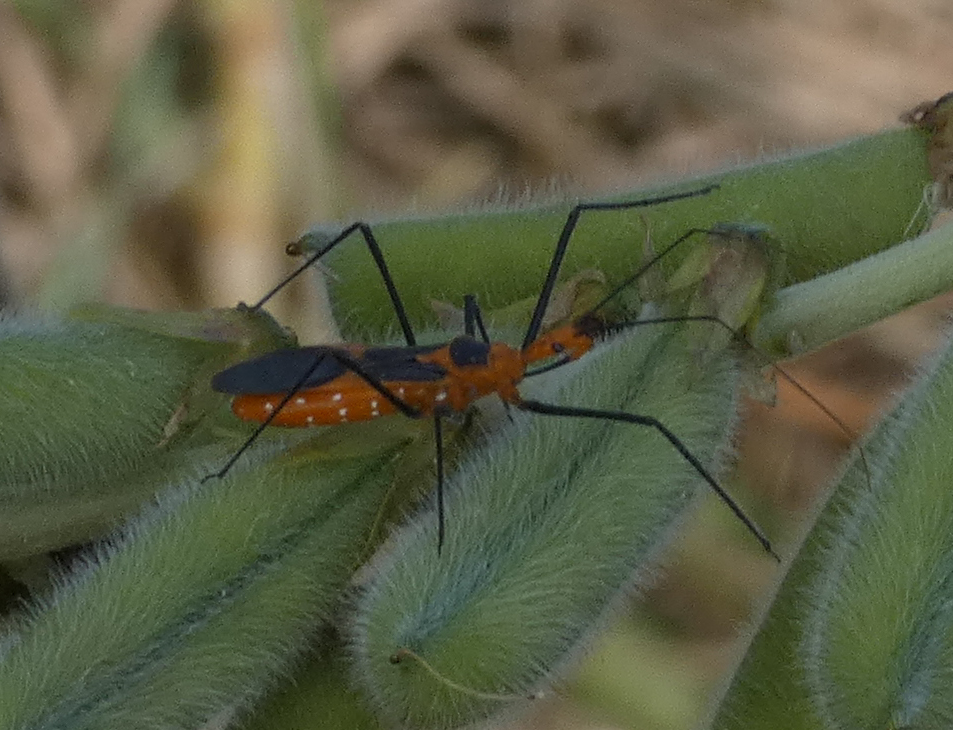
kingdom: Animalia
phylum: Arthropoda
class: Insecta
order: Hemiptera
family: Reduviidae
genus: Zelus
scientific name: Zelus longipes
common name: Milkweed assassin bug
